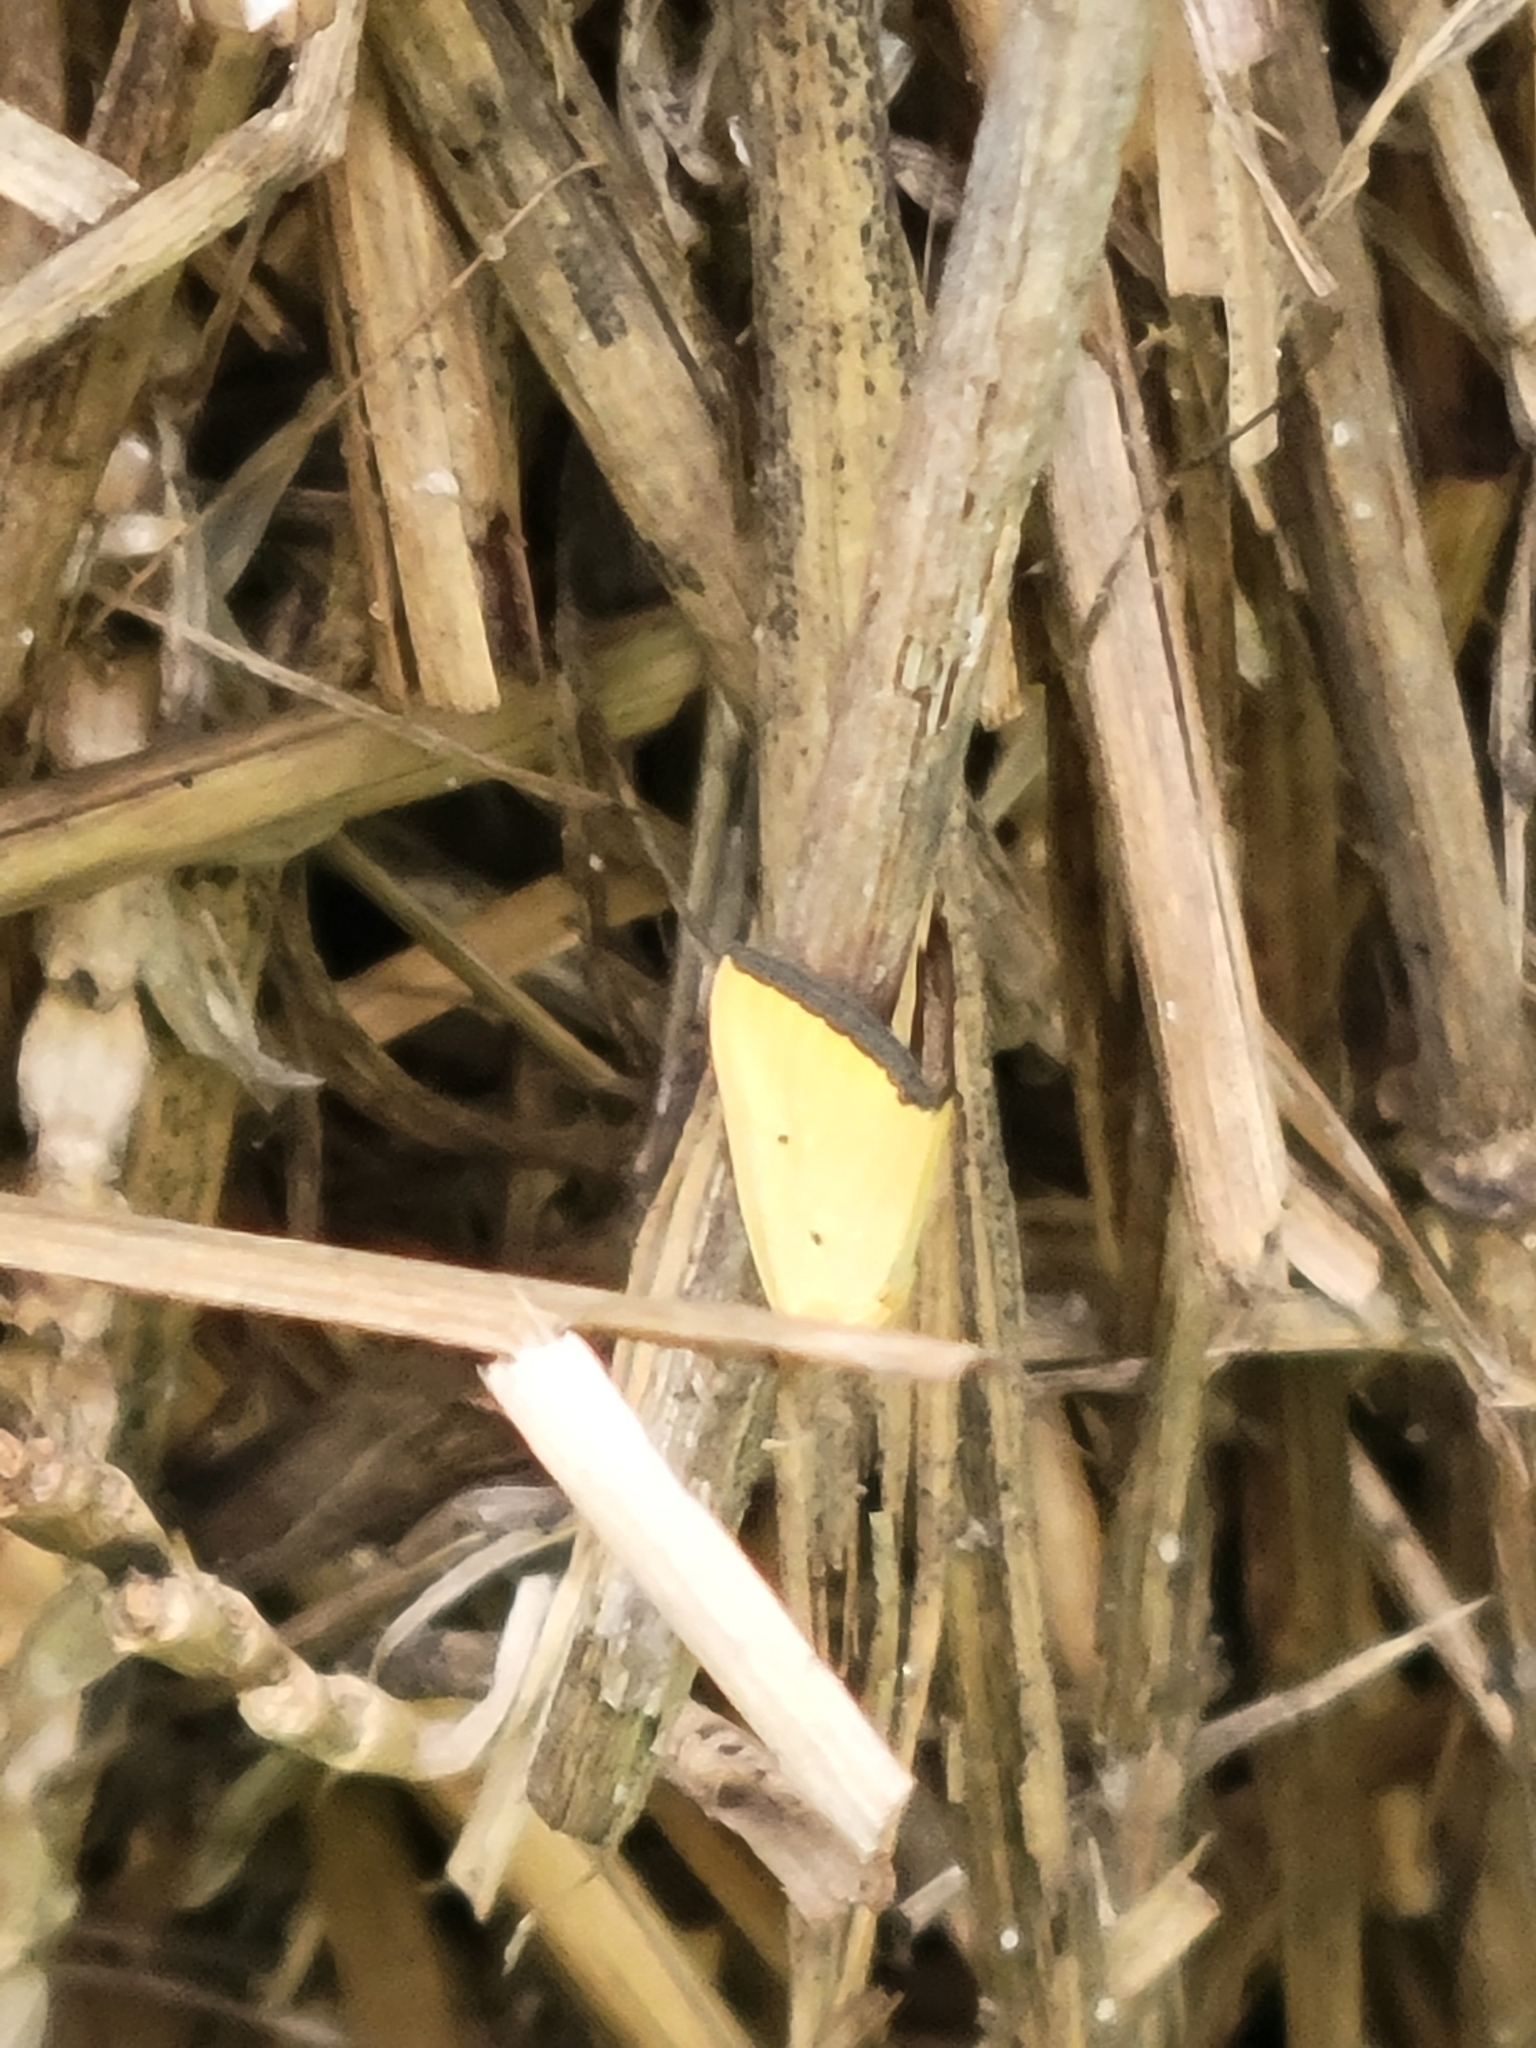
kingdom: Animalia
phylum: Arthropoda
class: Insecta
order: Lepidoptera
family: Noctuidae
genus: Marimatha
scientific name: Marimatha nigrofimbria
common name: Black-bordered lemon moth
